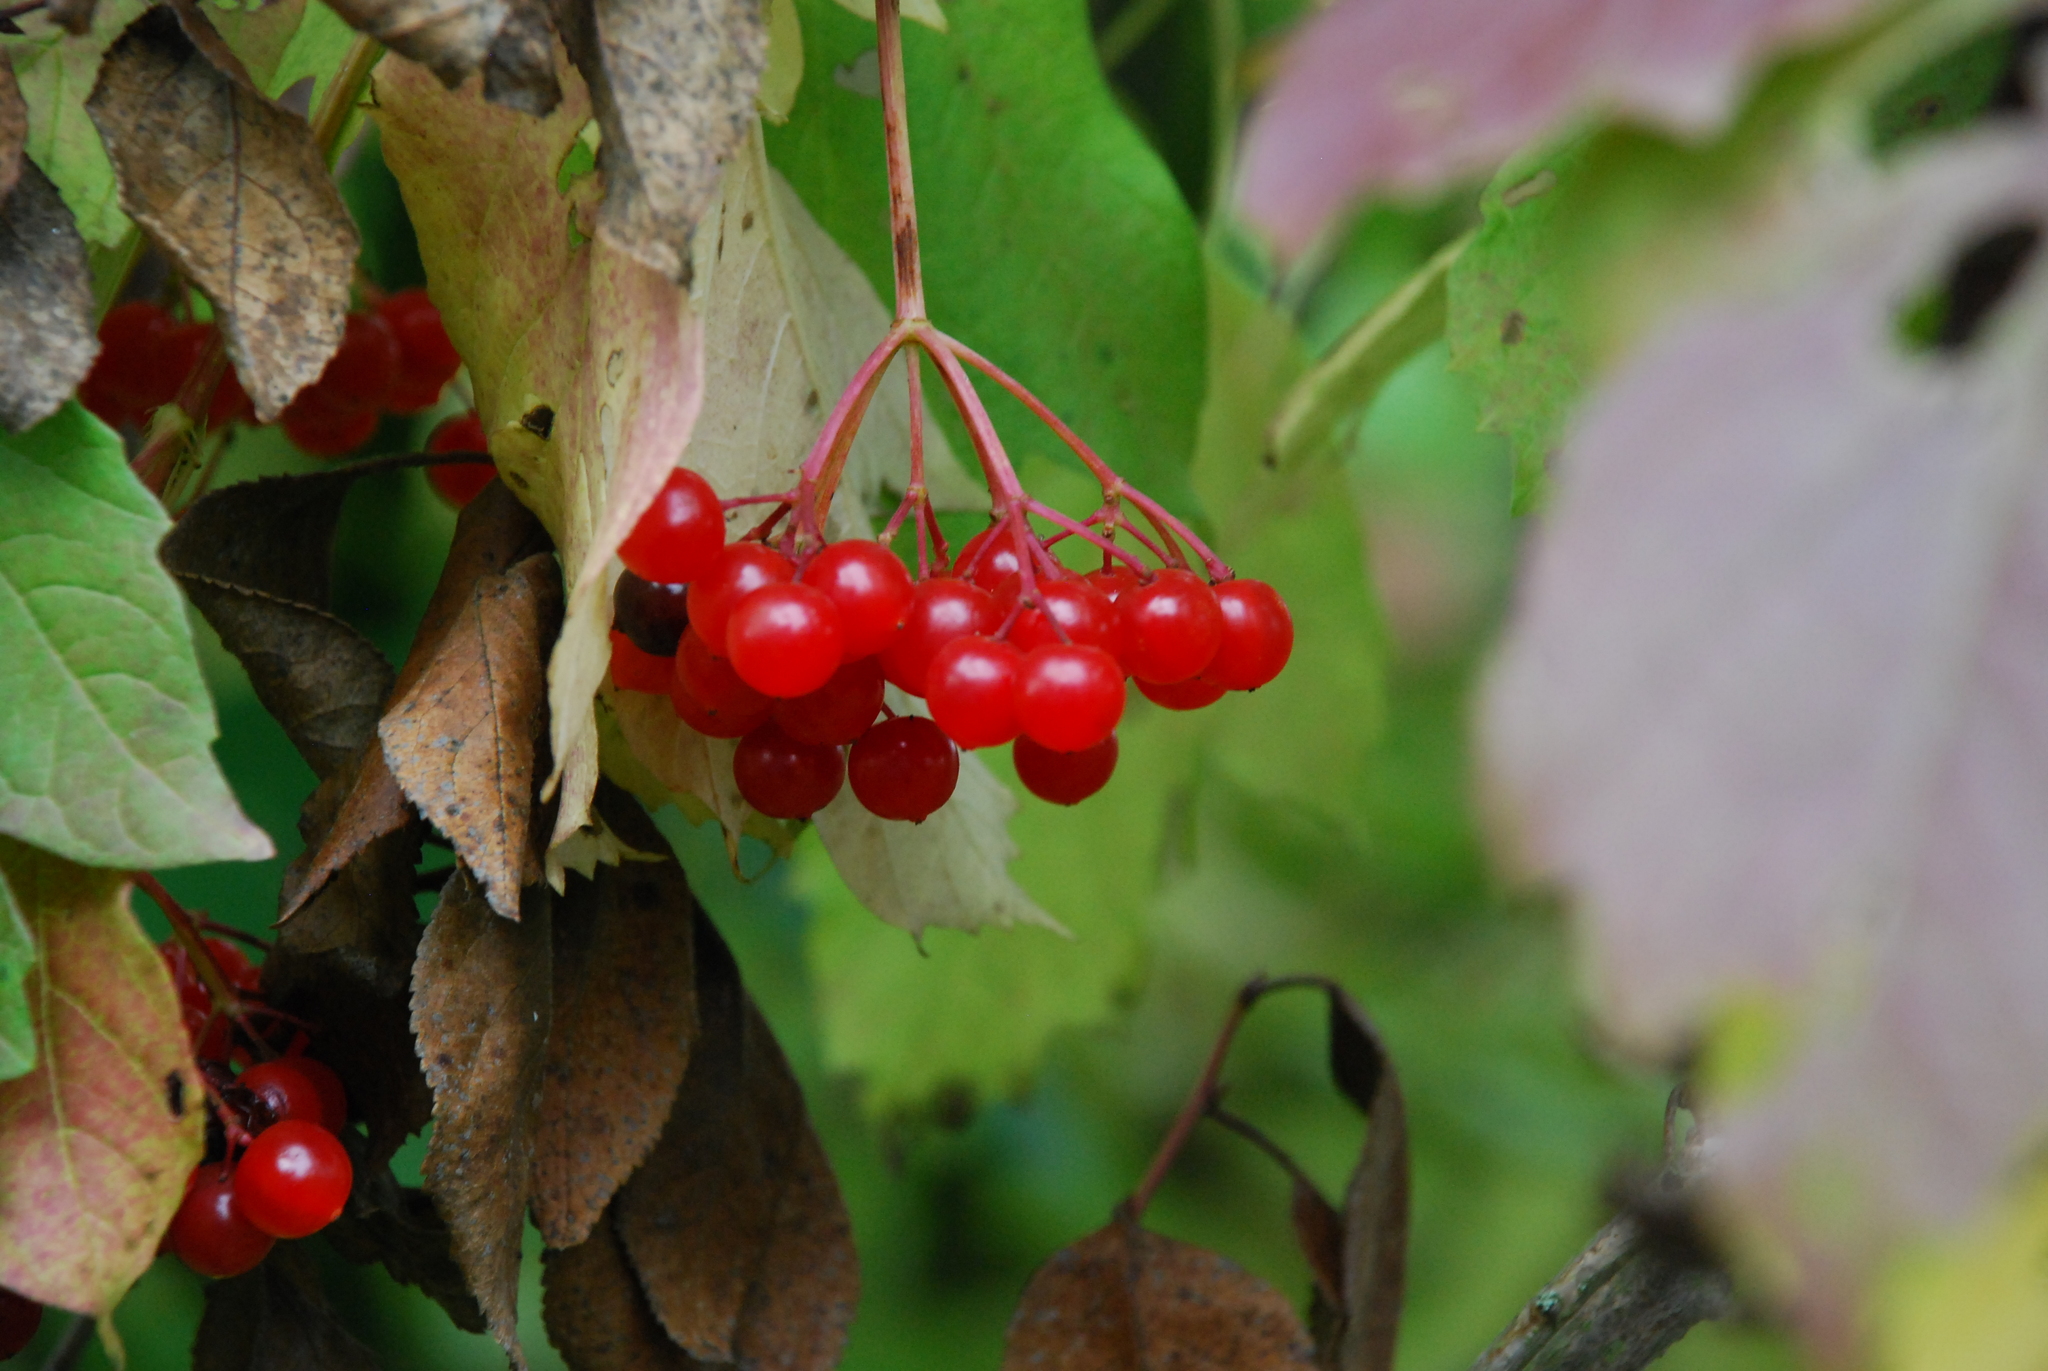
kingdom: Plantae
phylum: Tracheophyta
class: Magnoliopsida
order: Dipsacales
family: Viburnaceae
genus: Viburnum
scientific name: Viburnum opulus
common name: Guelder-rose
